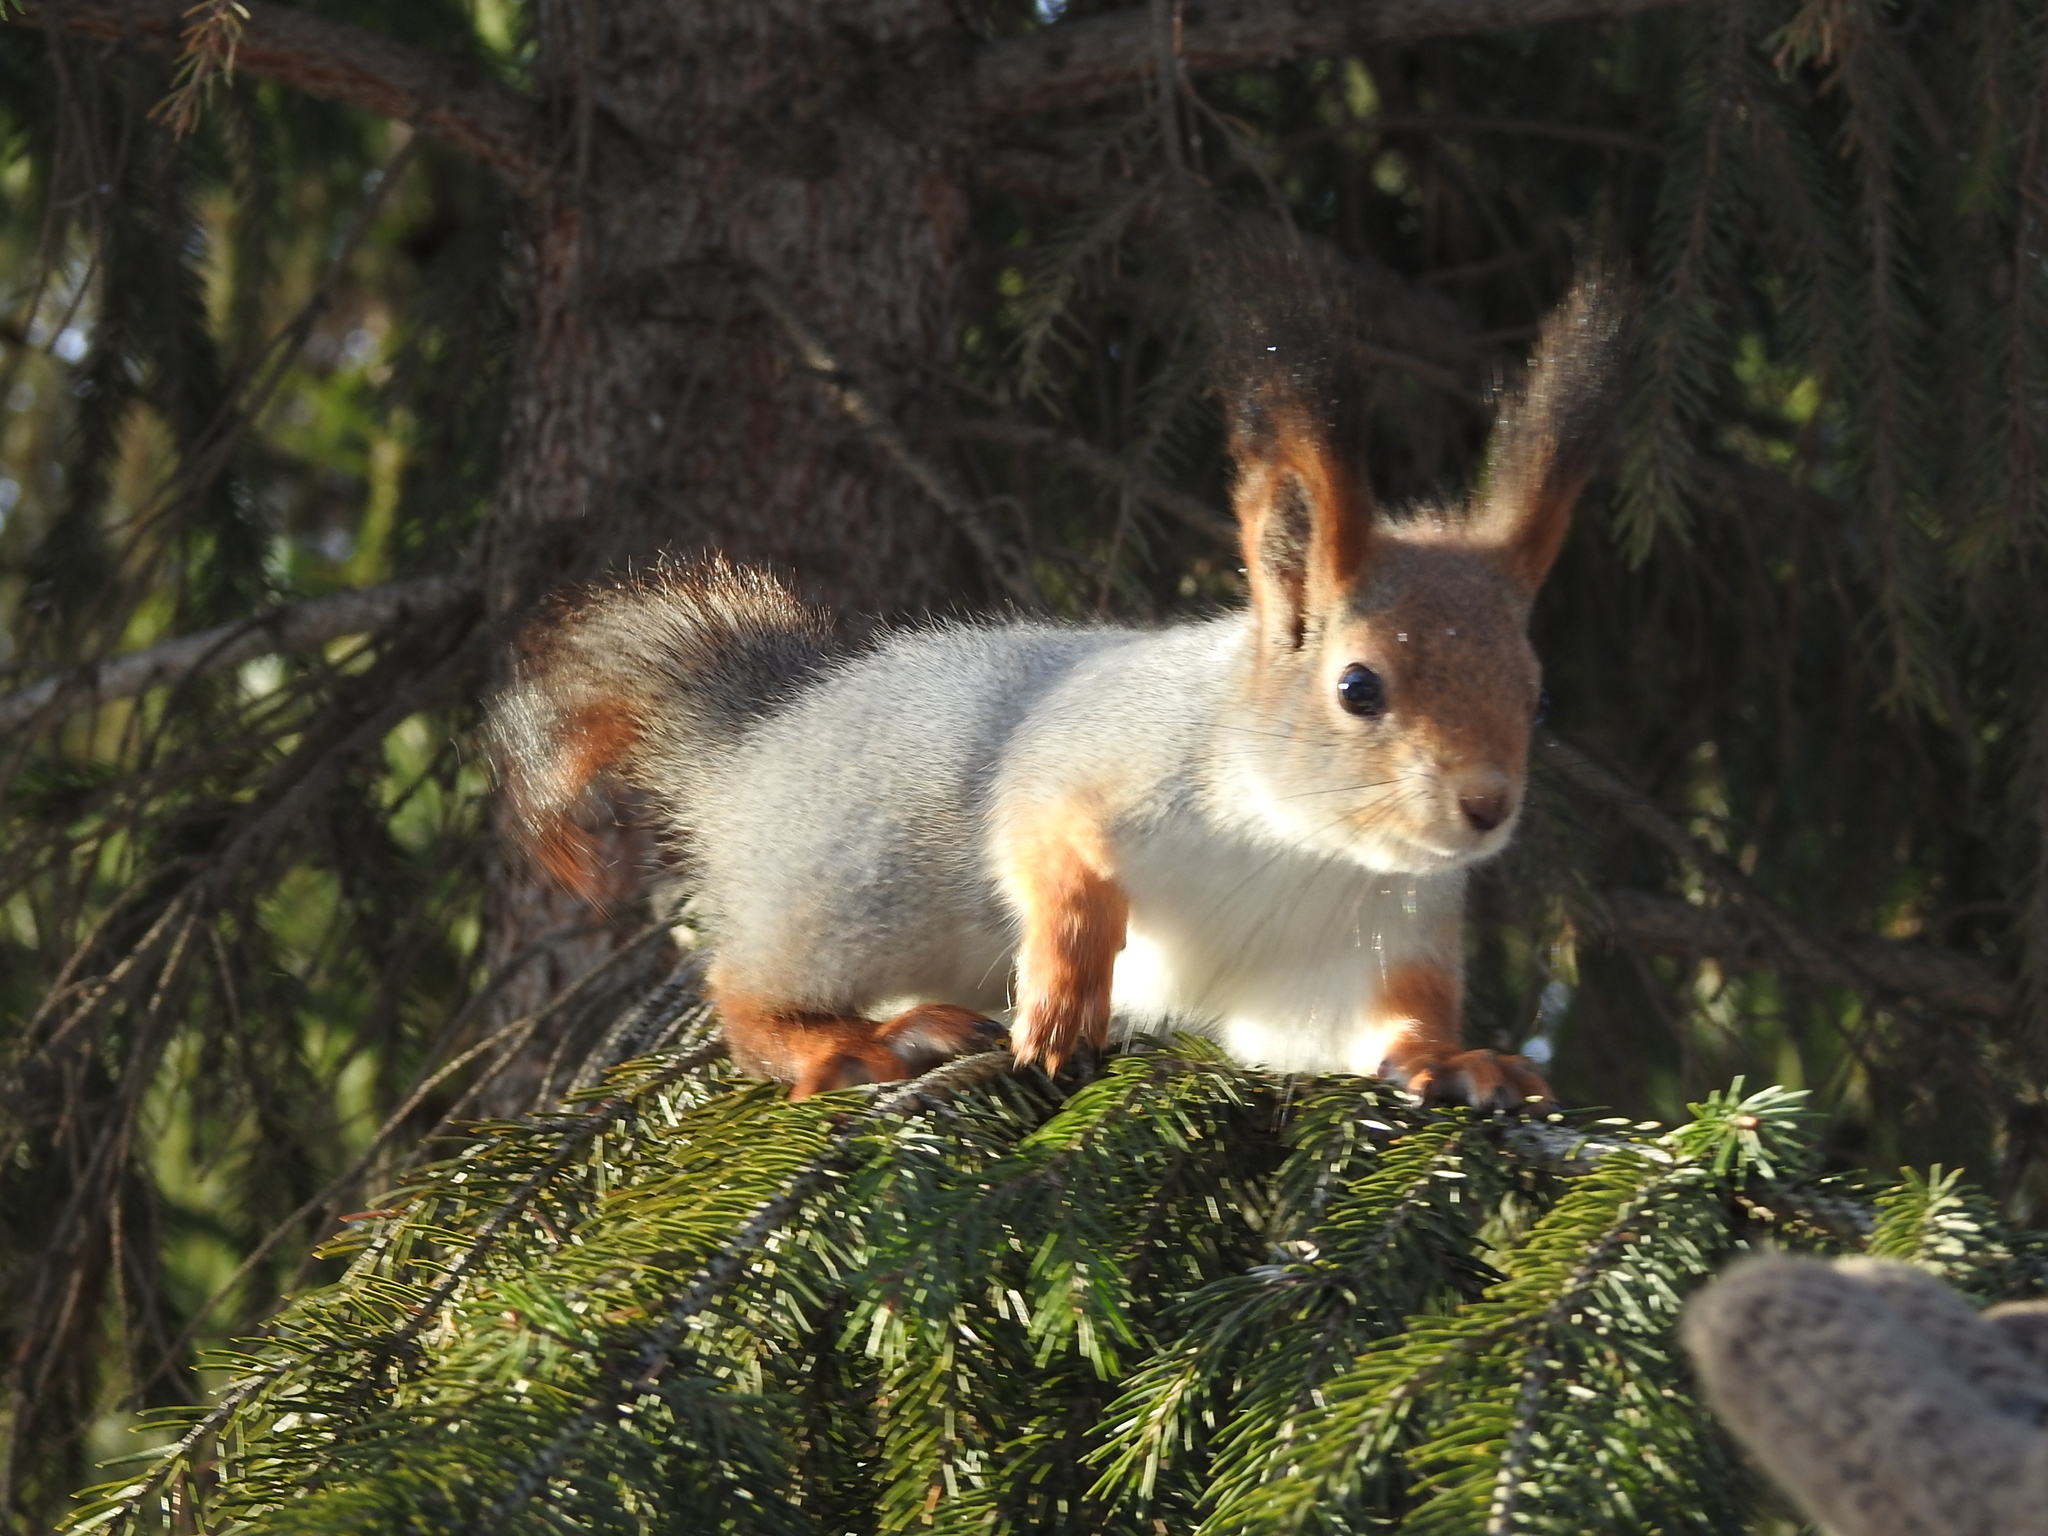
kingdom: Animalia
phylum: Chordata
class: Mammalia
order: Rodentia
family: Sciuridae
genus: Sciurus
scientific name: Sciurus vulgaris
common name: Eurasian red squirrel
